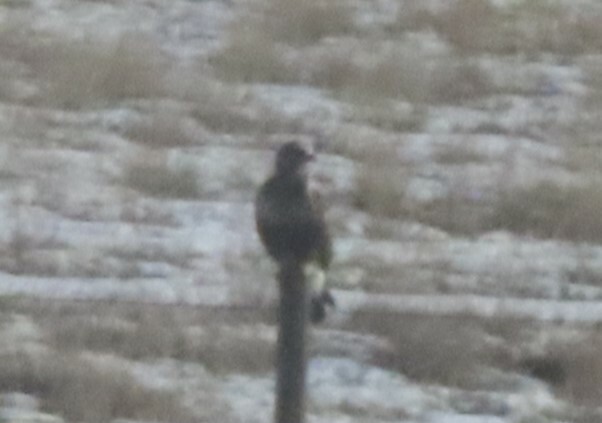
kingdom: Animalia
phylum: Chordata
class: Aves
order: Accipitriformes
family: Accipitridae
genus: Buteo
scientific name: Buteo lagopus
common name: Rough-legged buzzard
